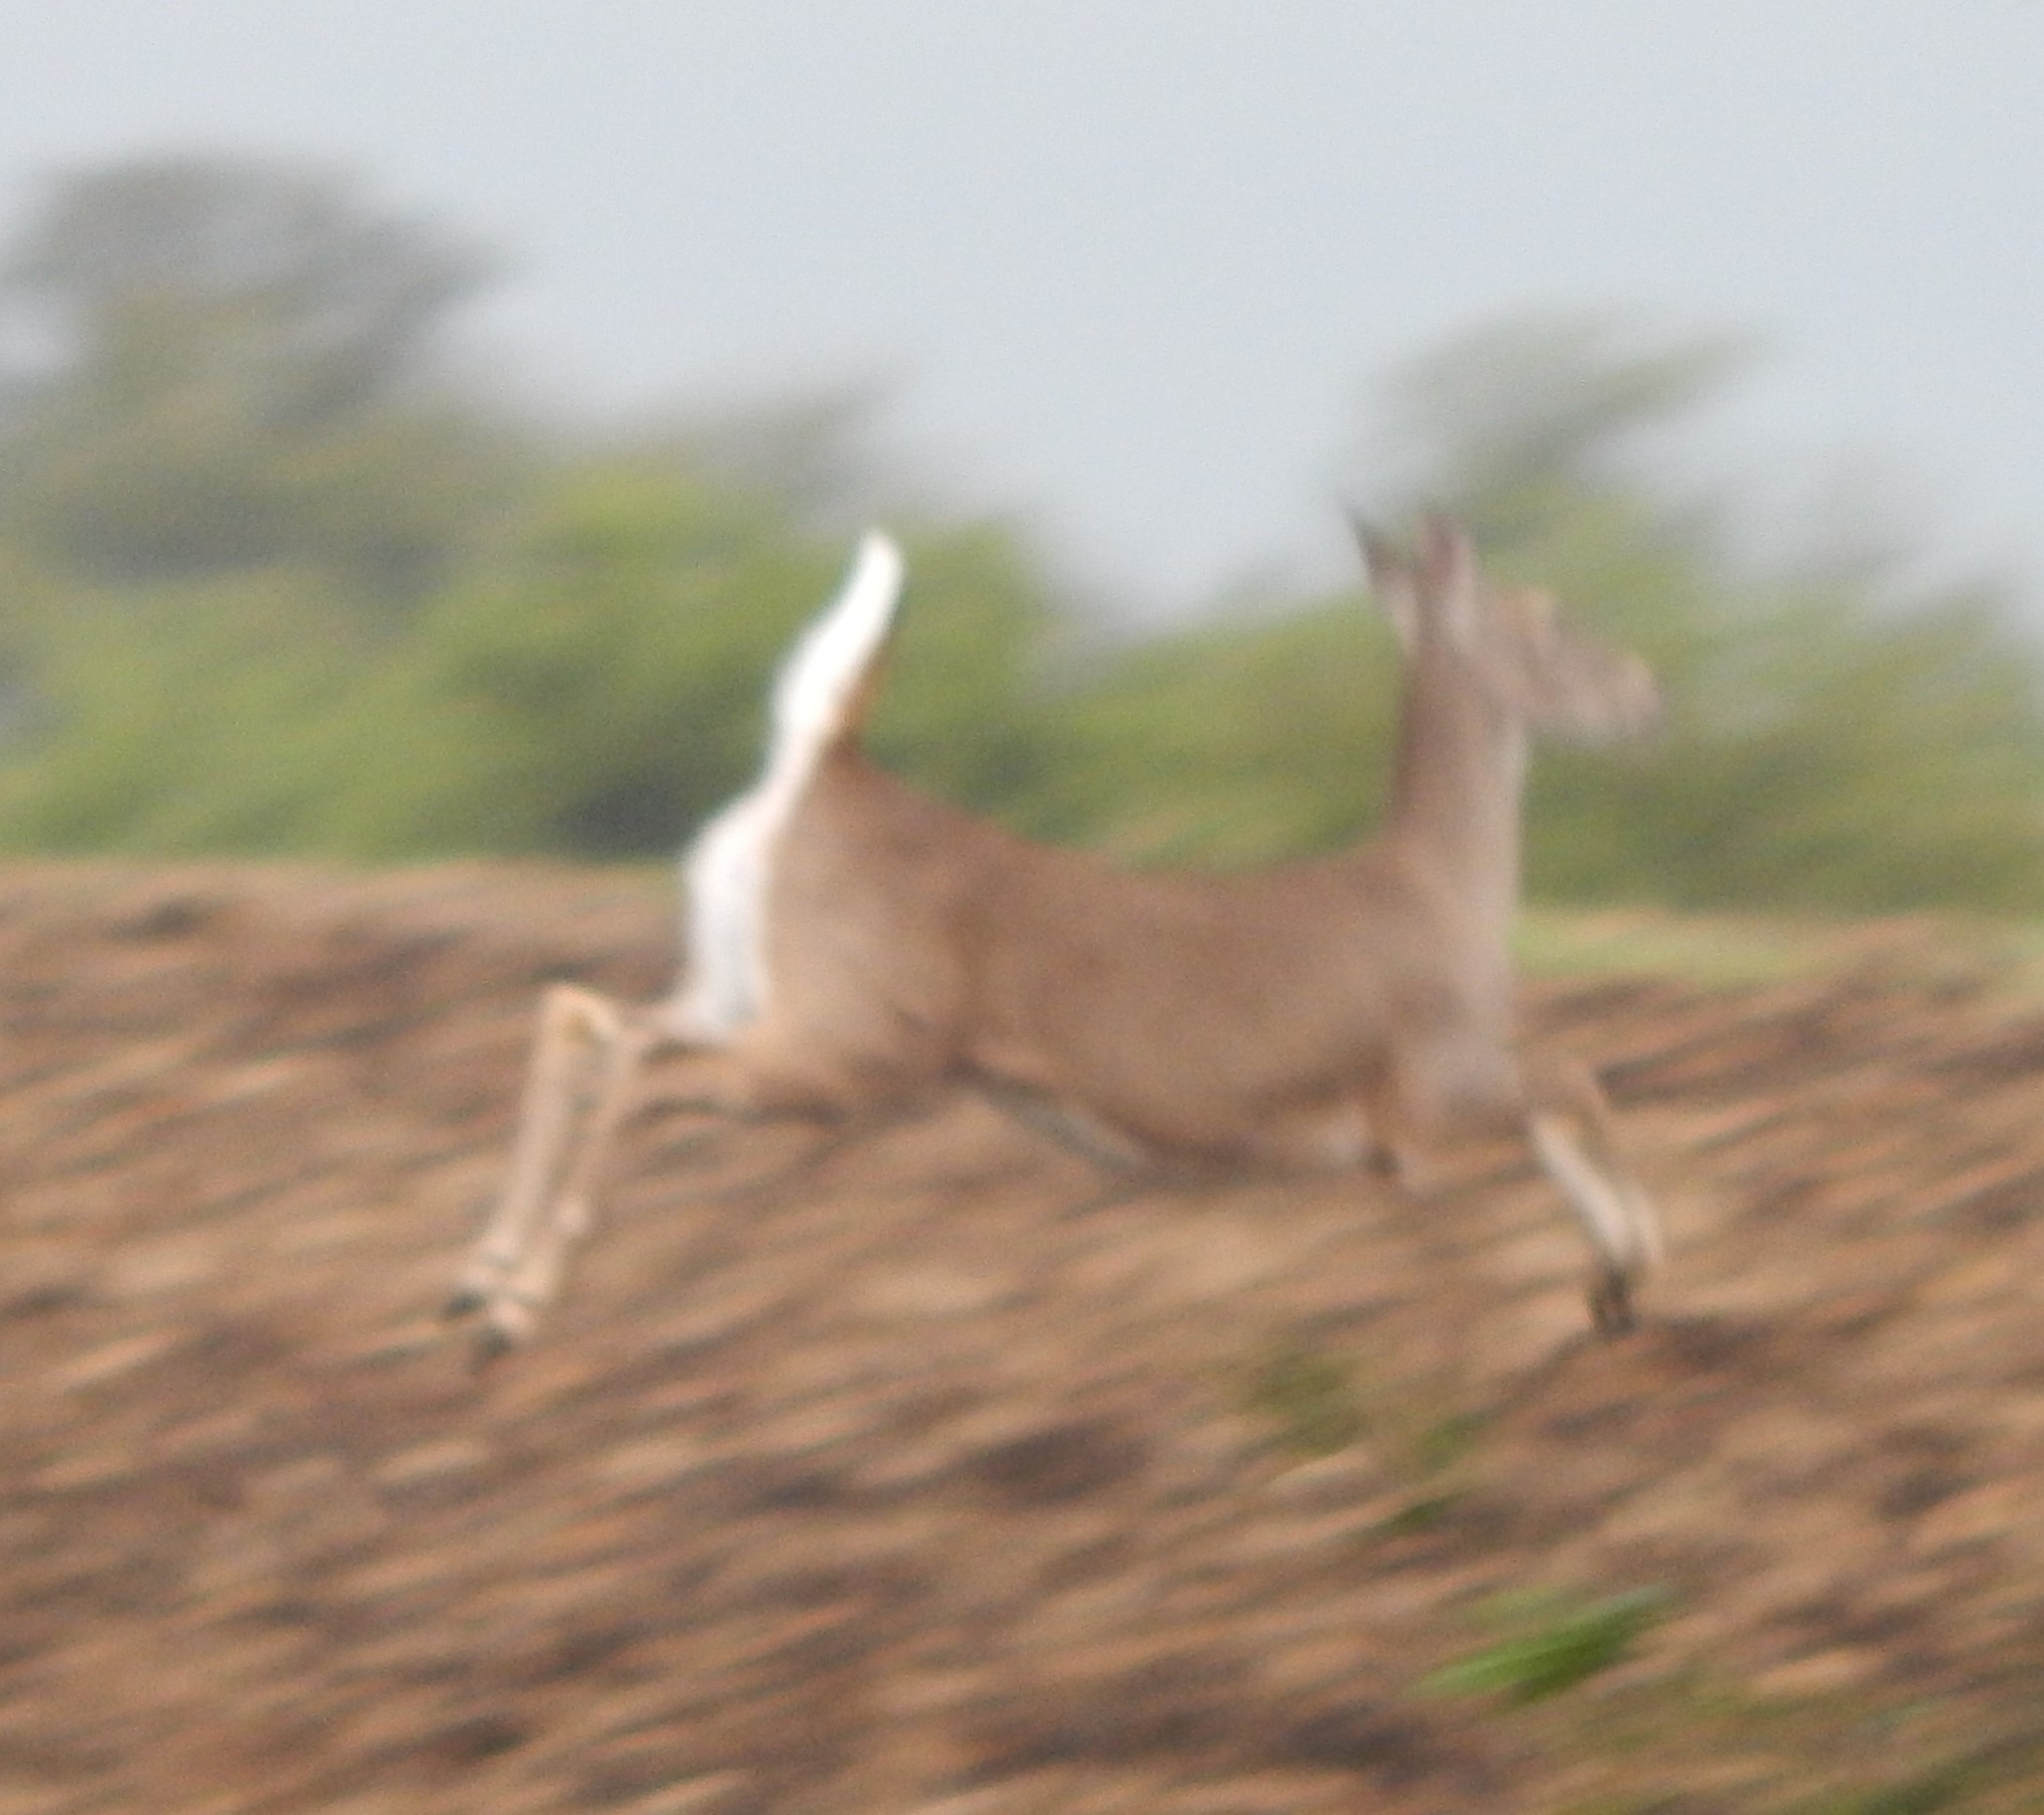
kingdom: Animalia
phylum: Chordata
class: Mammalia
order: Artiodactyla
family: Cervidae
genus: Odocoileus
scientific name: Odocoileus virginianus
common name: White-tailed deer
